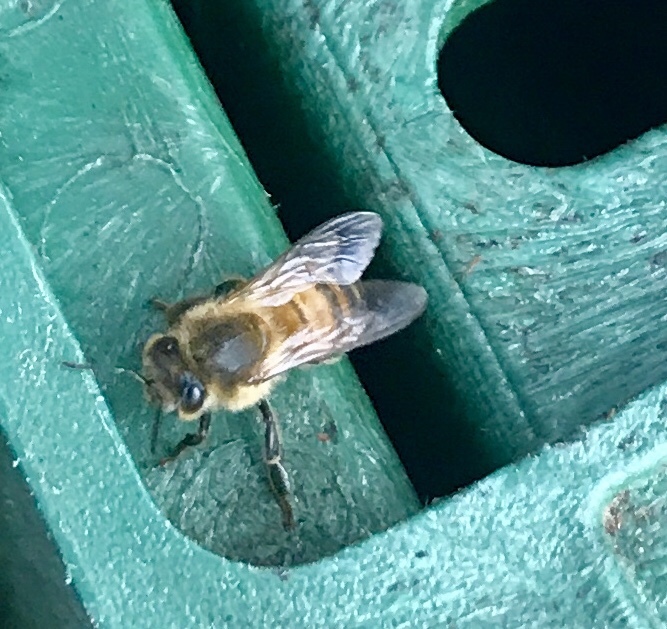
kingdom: Animalia
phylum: Arthropoda
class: Insecta
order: Hymenoptera
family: Apidae
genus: Apis
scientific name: Apis mellifera
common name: Honey bee
